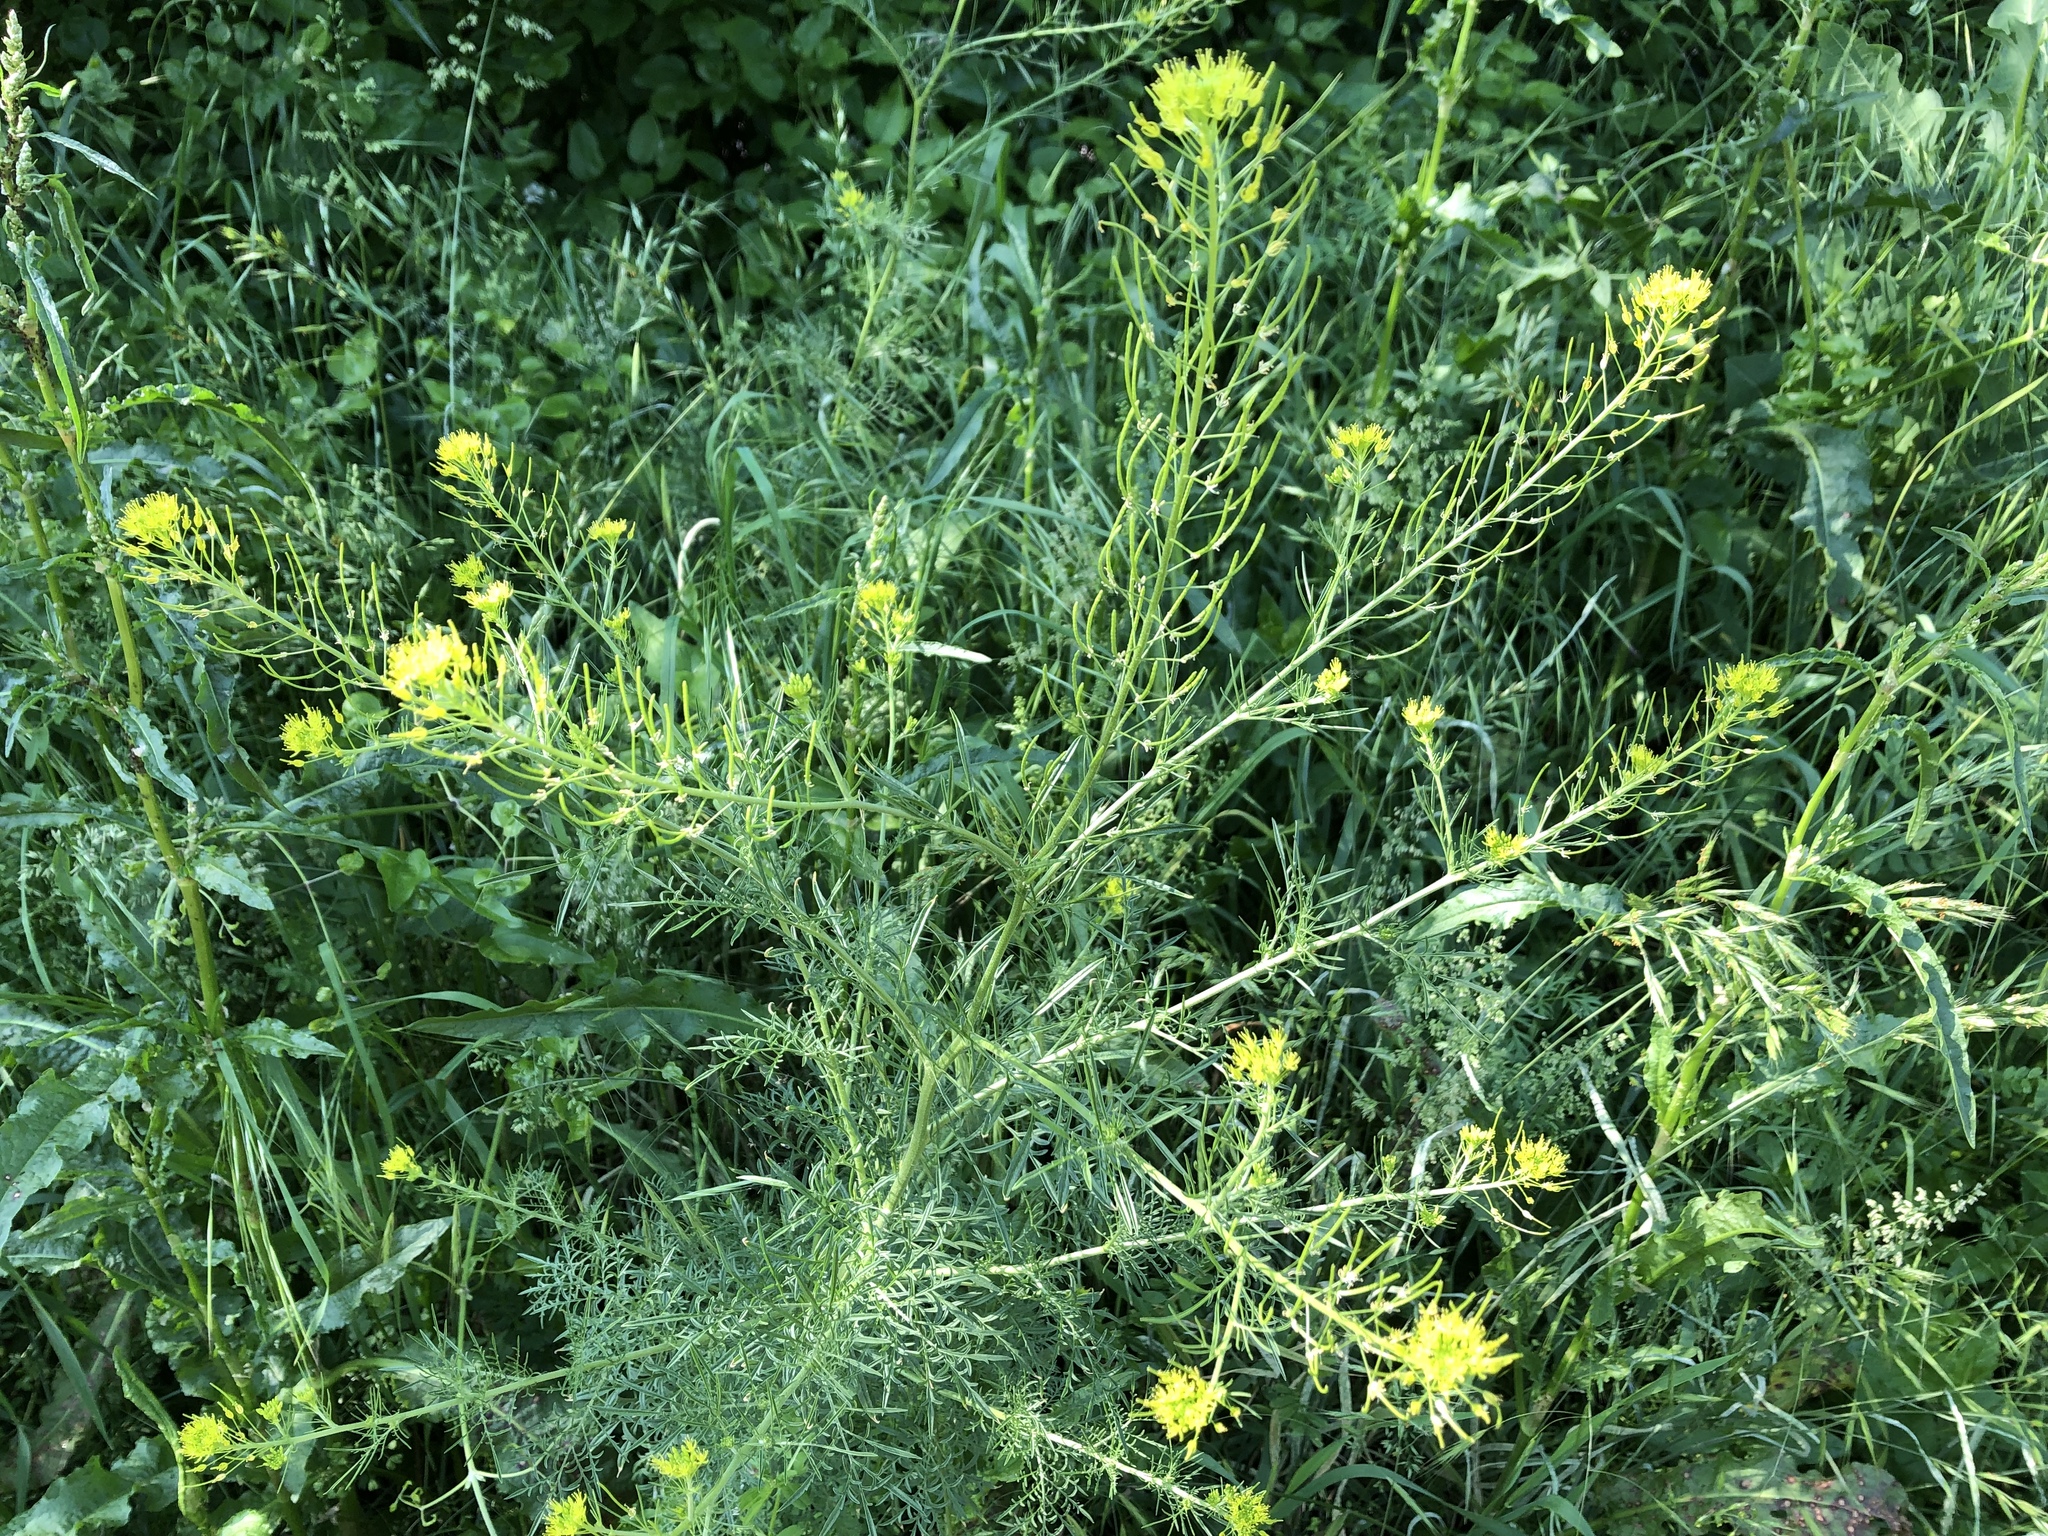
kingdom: Plantae
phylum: Tracheophyta
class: Magnoliopsida
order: Brassicales
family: Brassicaceae
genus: Descurainia
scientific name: Descurainia sophia
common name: Flixweed
